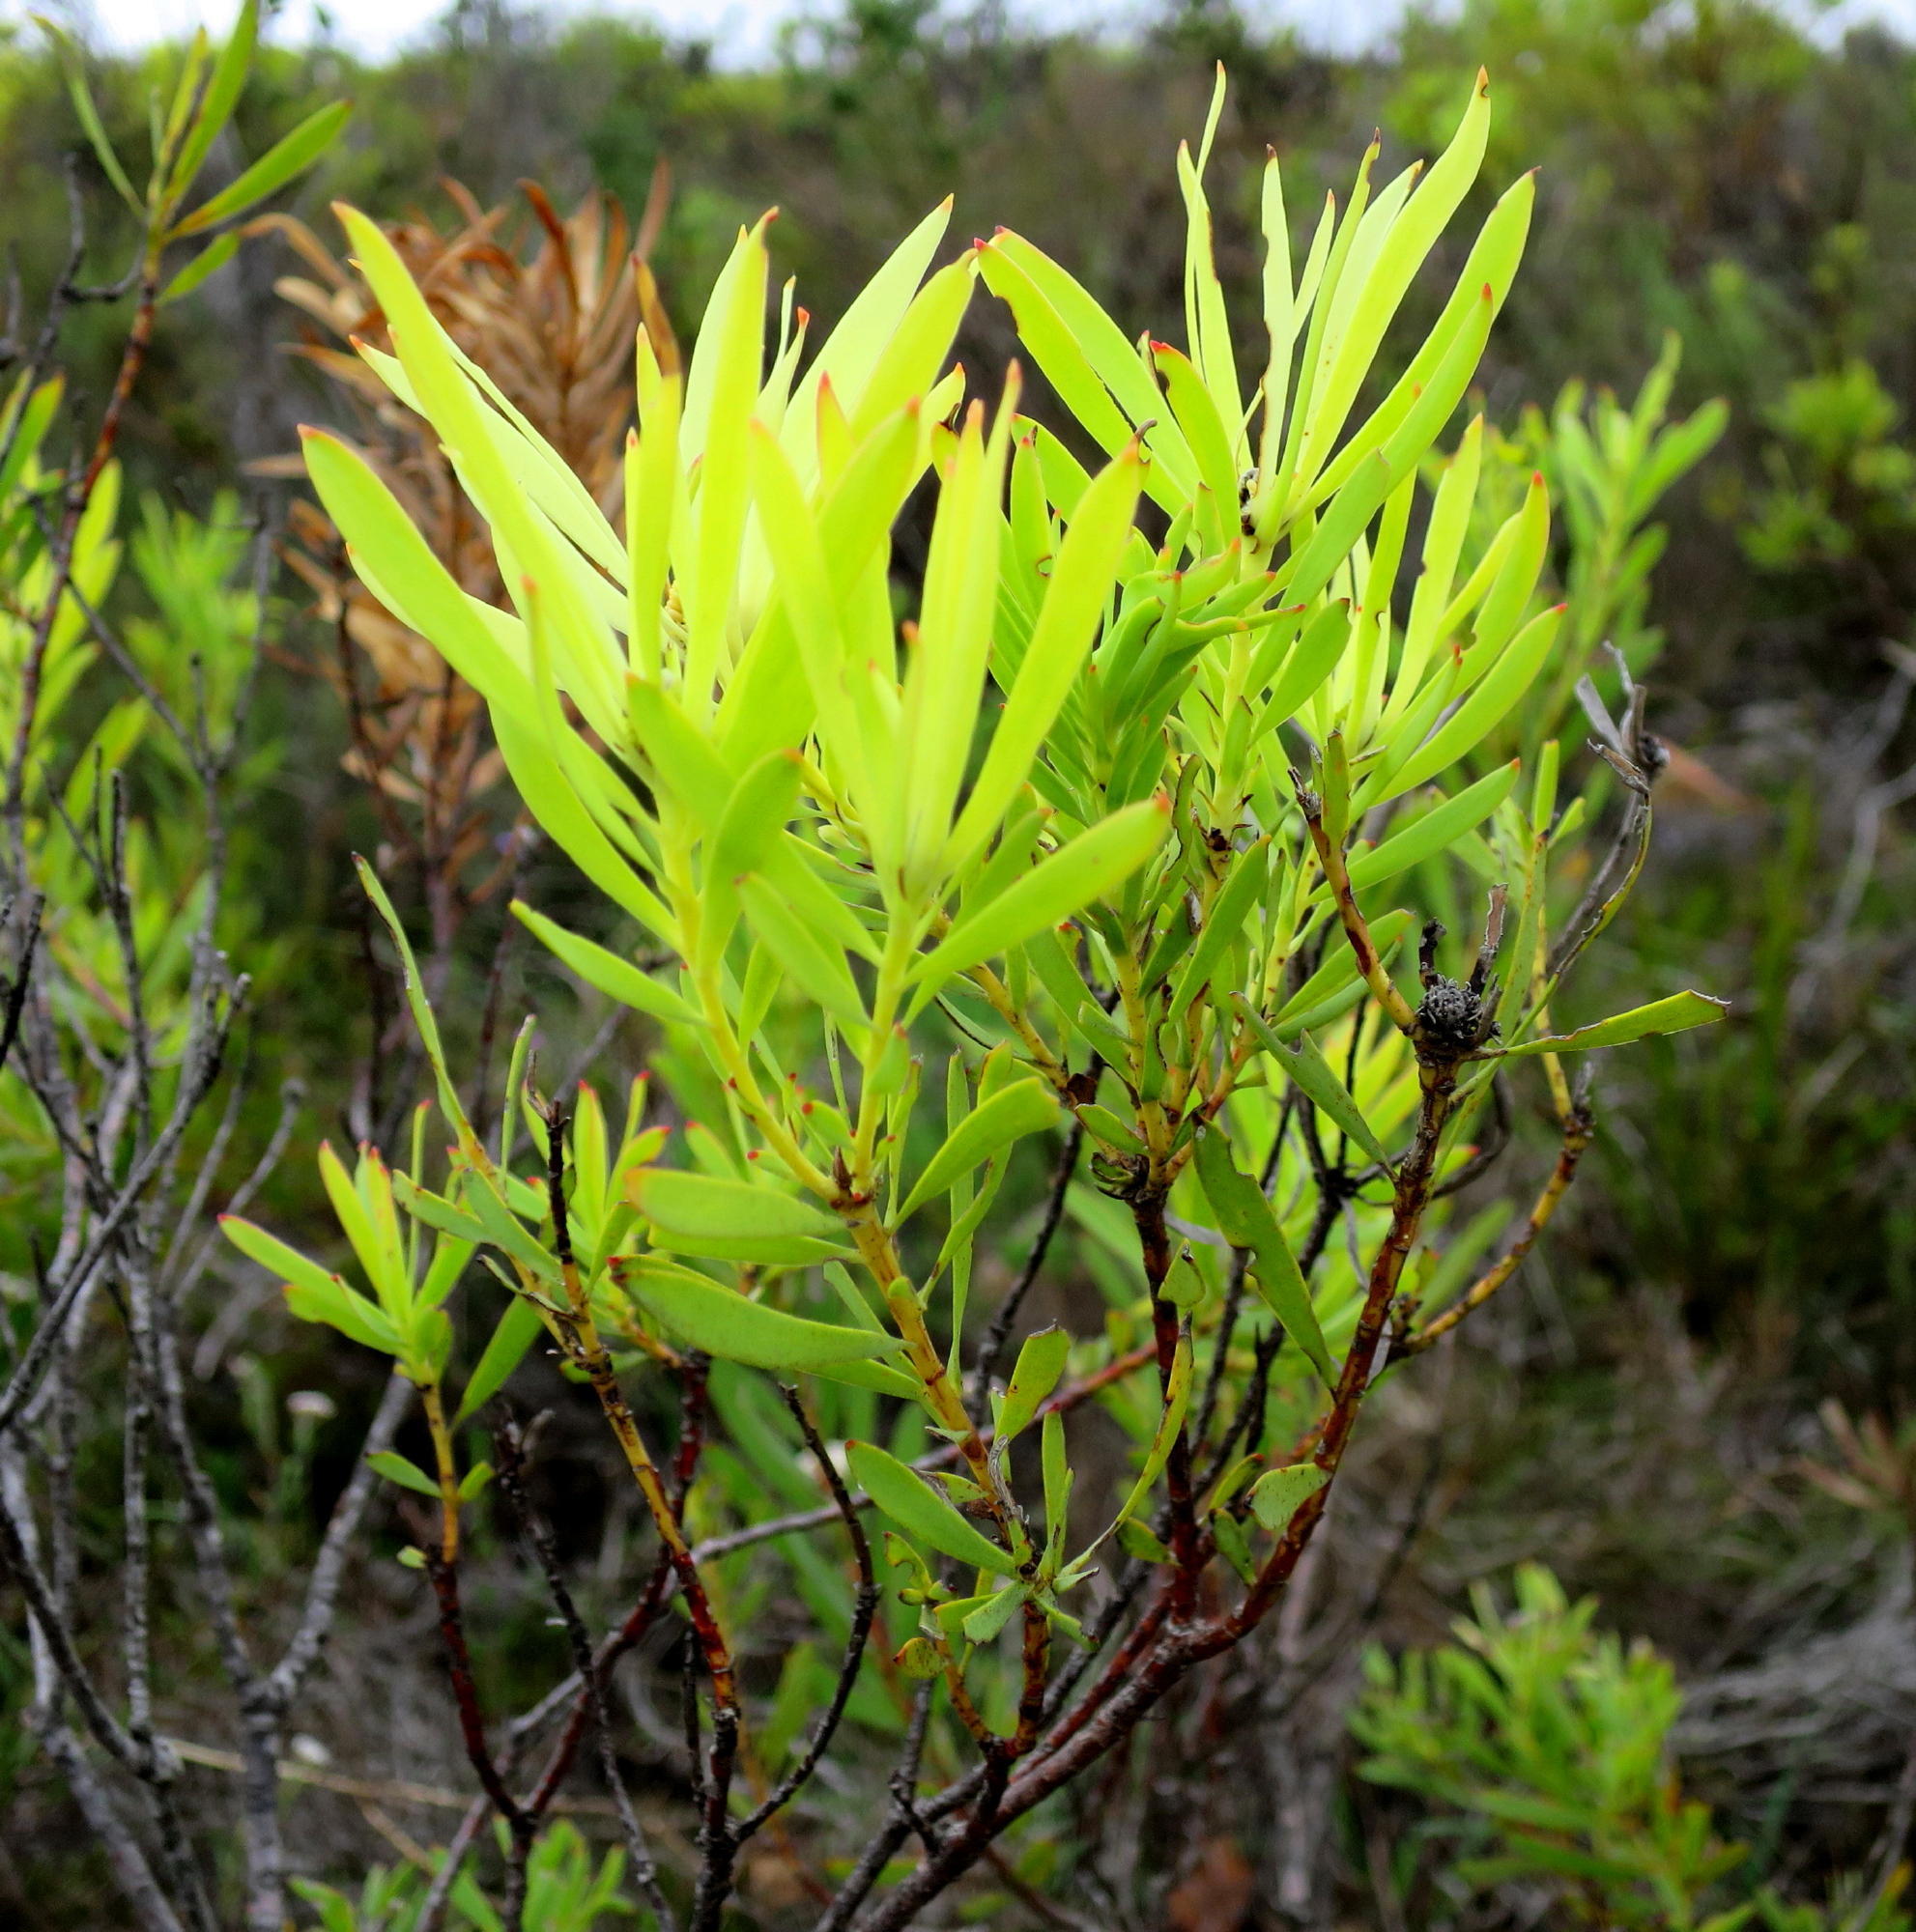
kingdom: Plantae
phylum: Tracheophyta
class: Magnoliopsida
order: Proteales
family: Proteaceae
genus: Leucadendron
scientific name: Leucadendron salignum
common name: Common sunshine conebush
